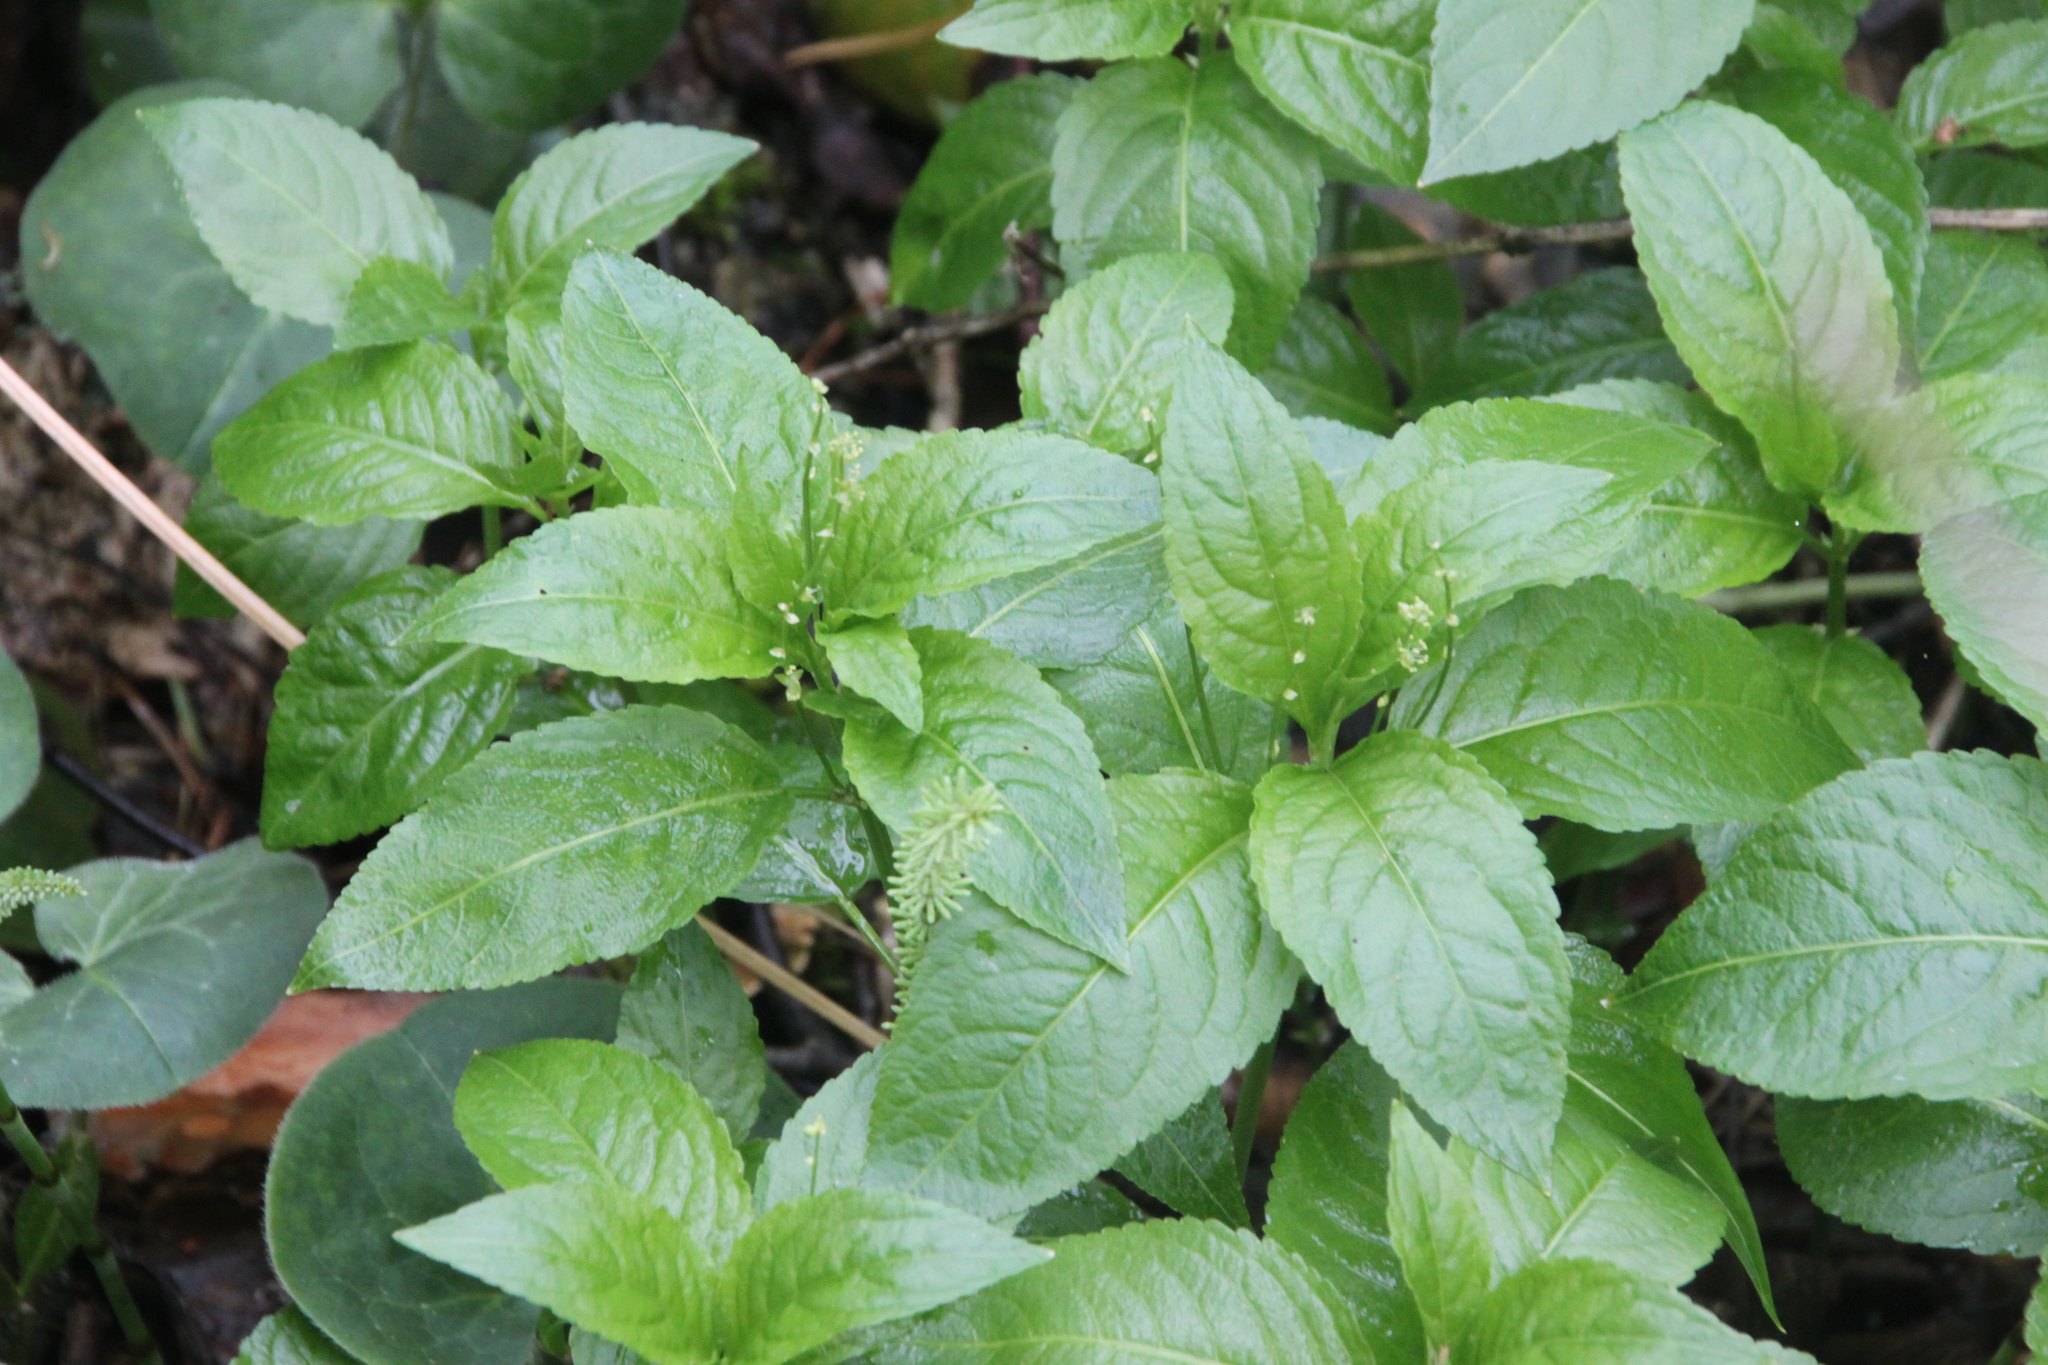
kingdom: Plantae
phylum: Tracheophyta
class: Magnoliopsida
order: Malpighiales
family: Euphorbiaceae
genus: Mercurialis
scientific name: Mercurialis perennis
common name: Dog mercury
